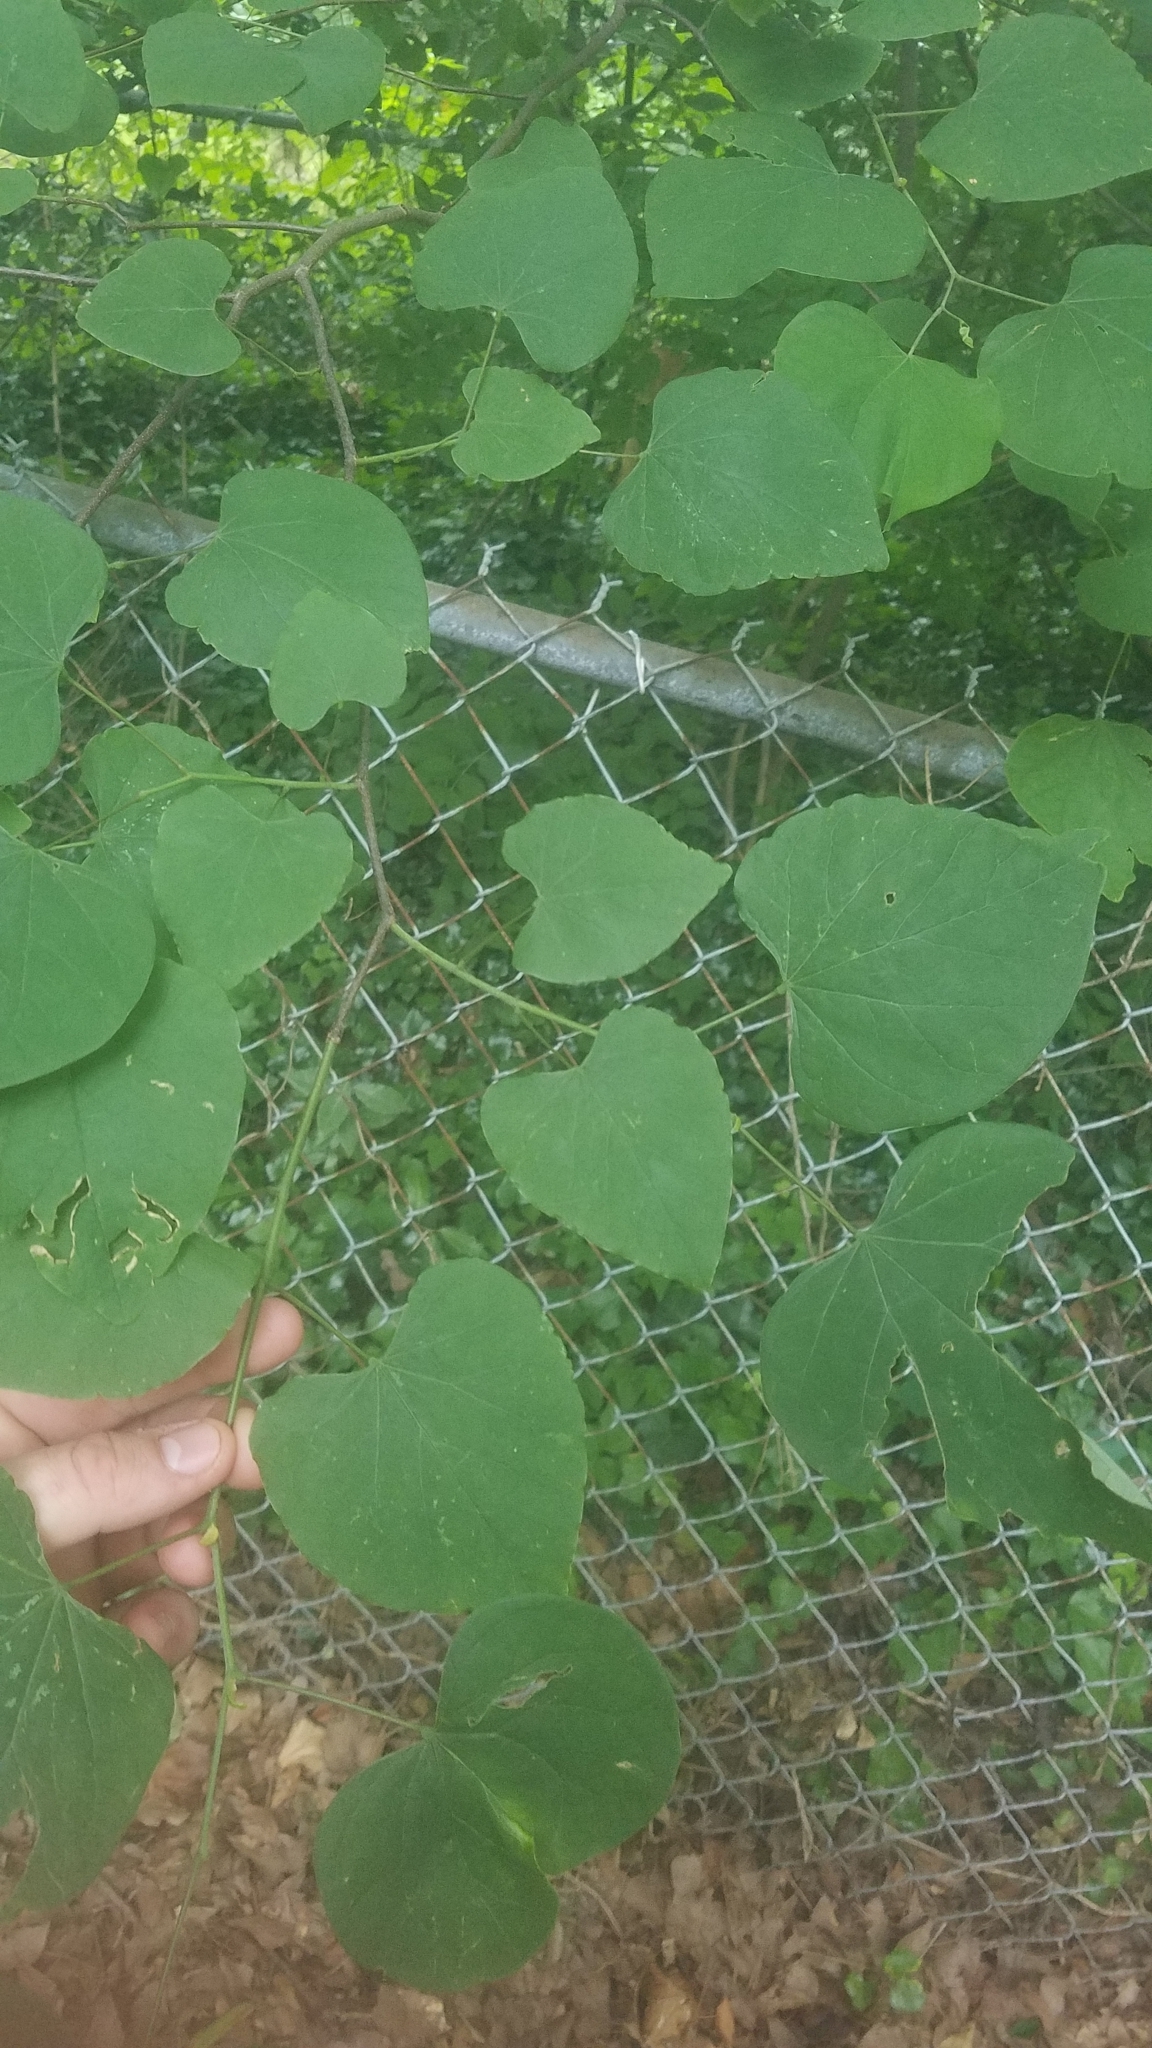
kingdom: Plantae
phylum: Tracheophyta
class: Magnoliopsida
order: Fabales
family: Fabaceae
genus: Cercis
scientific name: Cercis canadensis
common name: Eastern redbud
